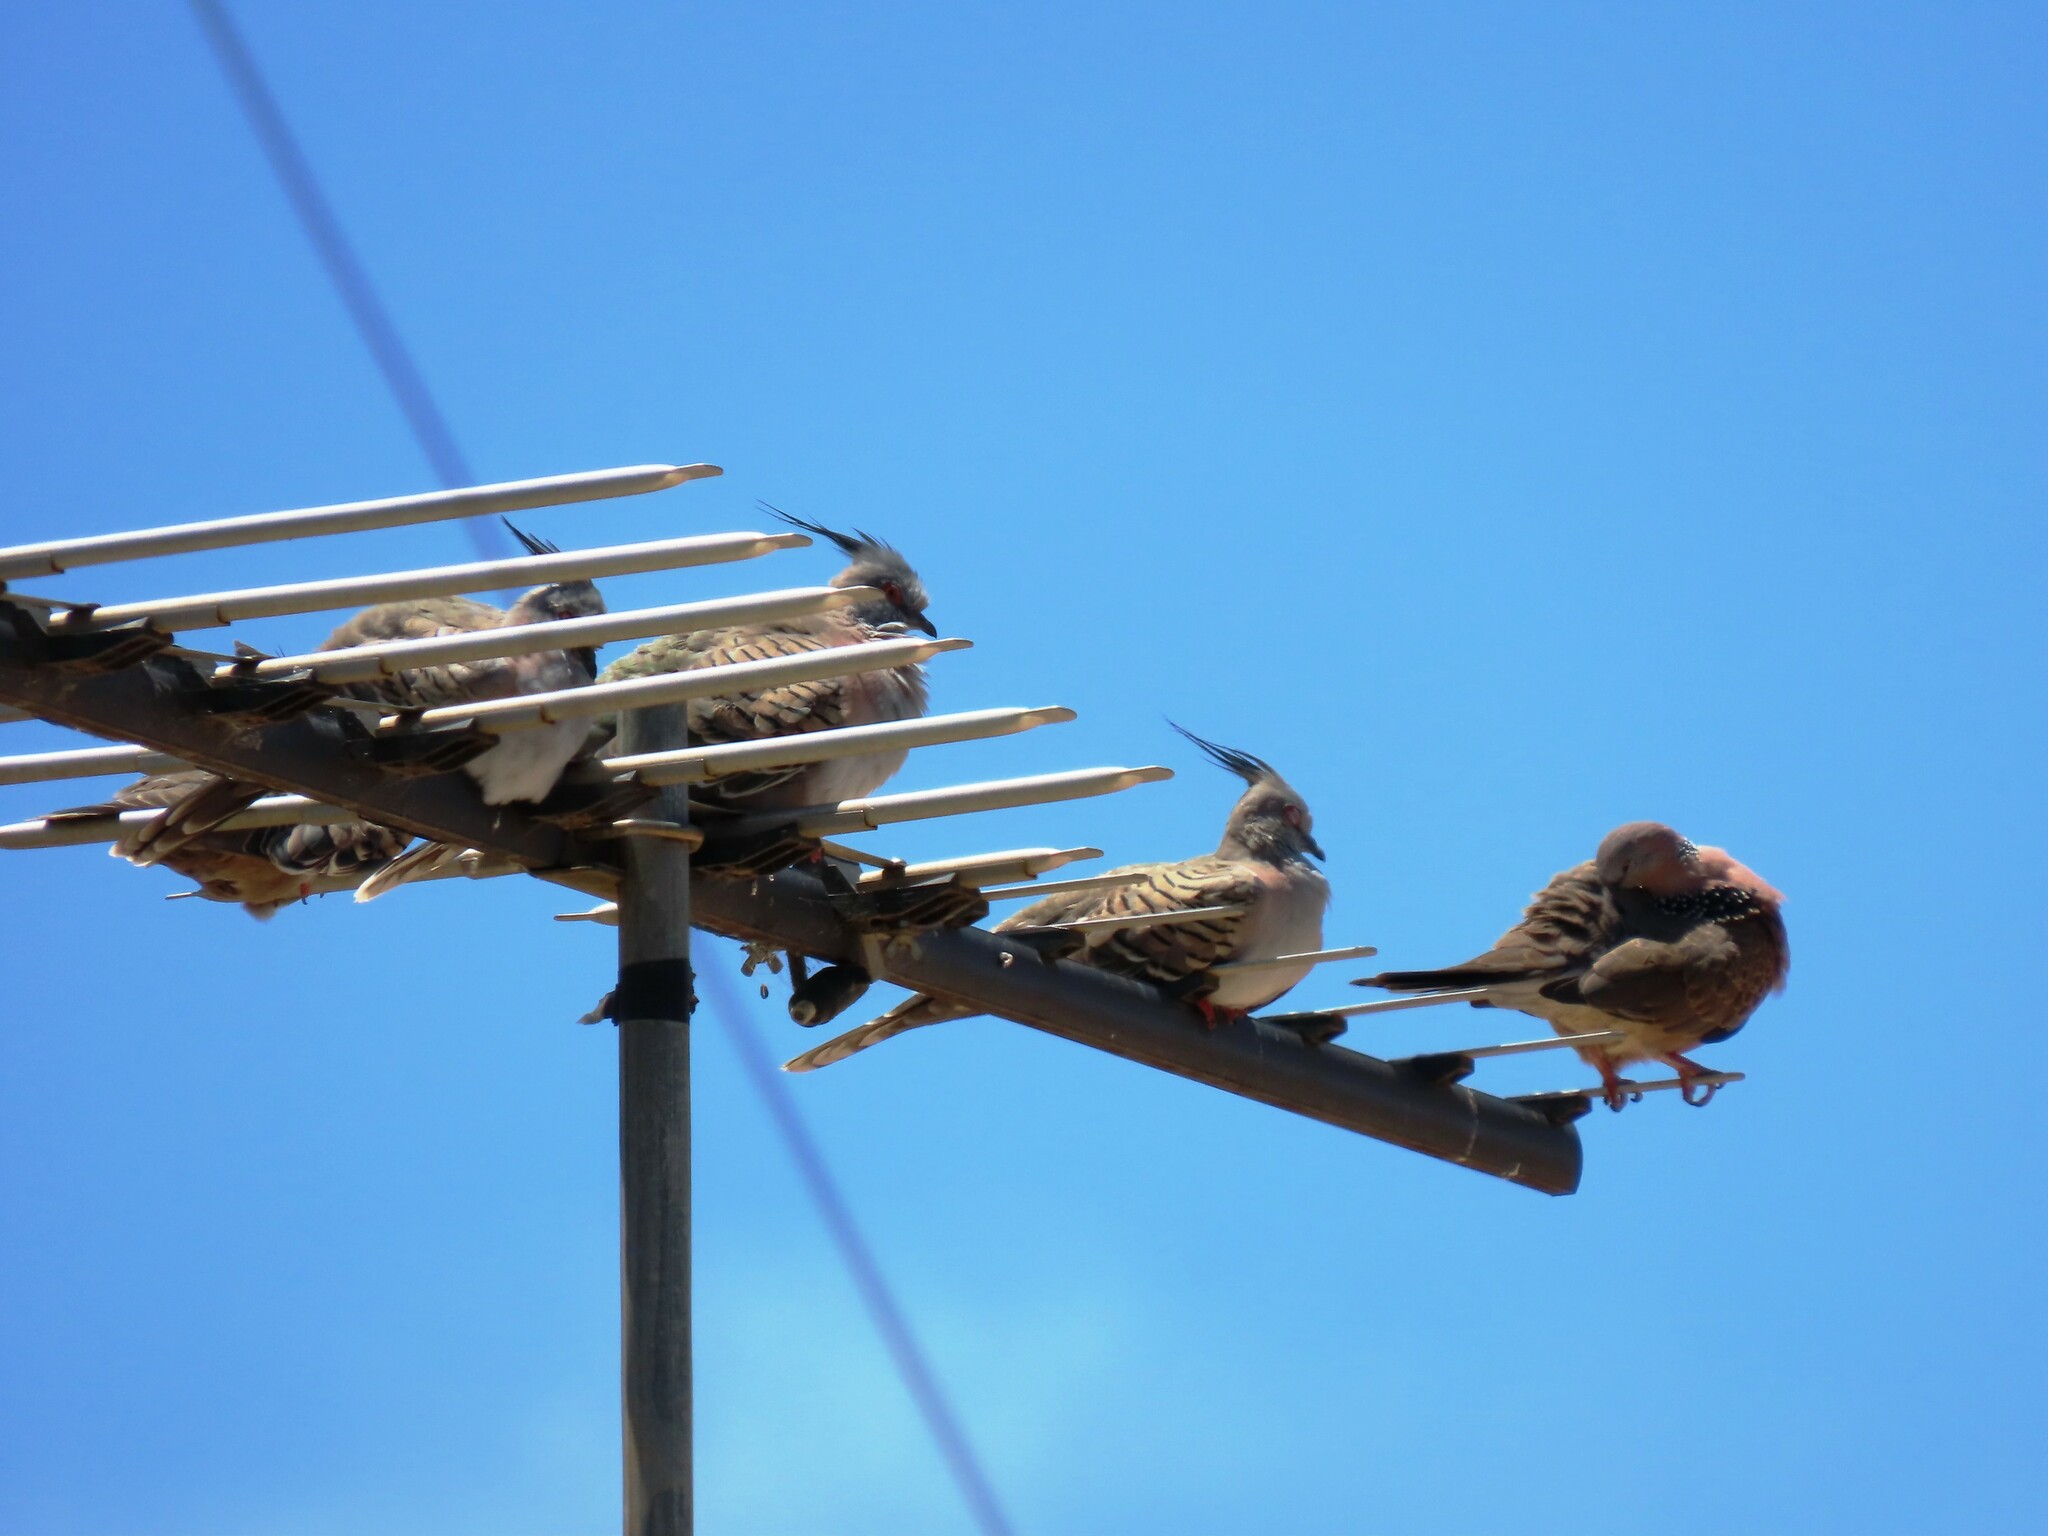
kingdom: Animalia
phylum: Chordata
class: Aves
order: Columbiformes
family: Columbidae
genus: Ocyphaps
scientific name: Ocyphaps lophotes
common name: Crested pigeon
